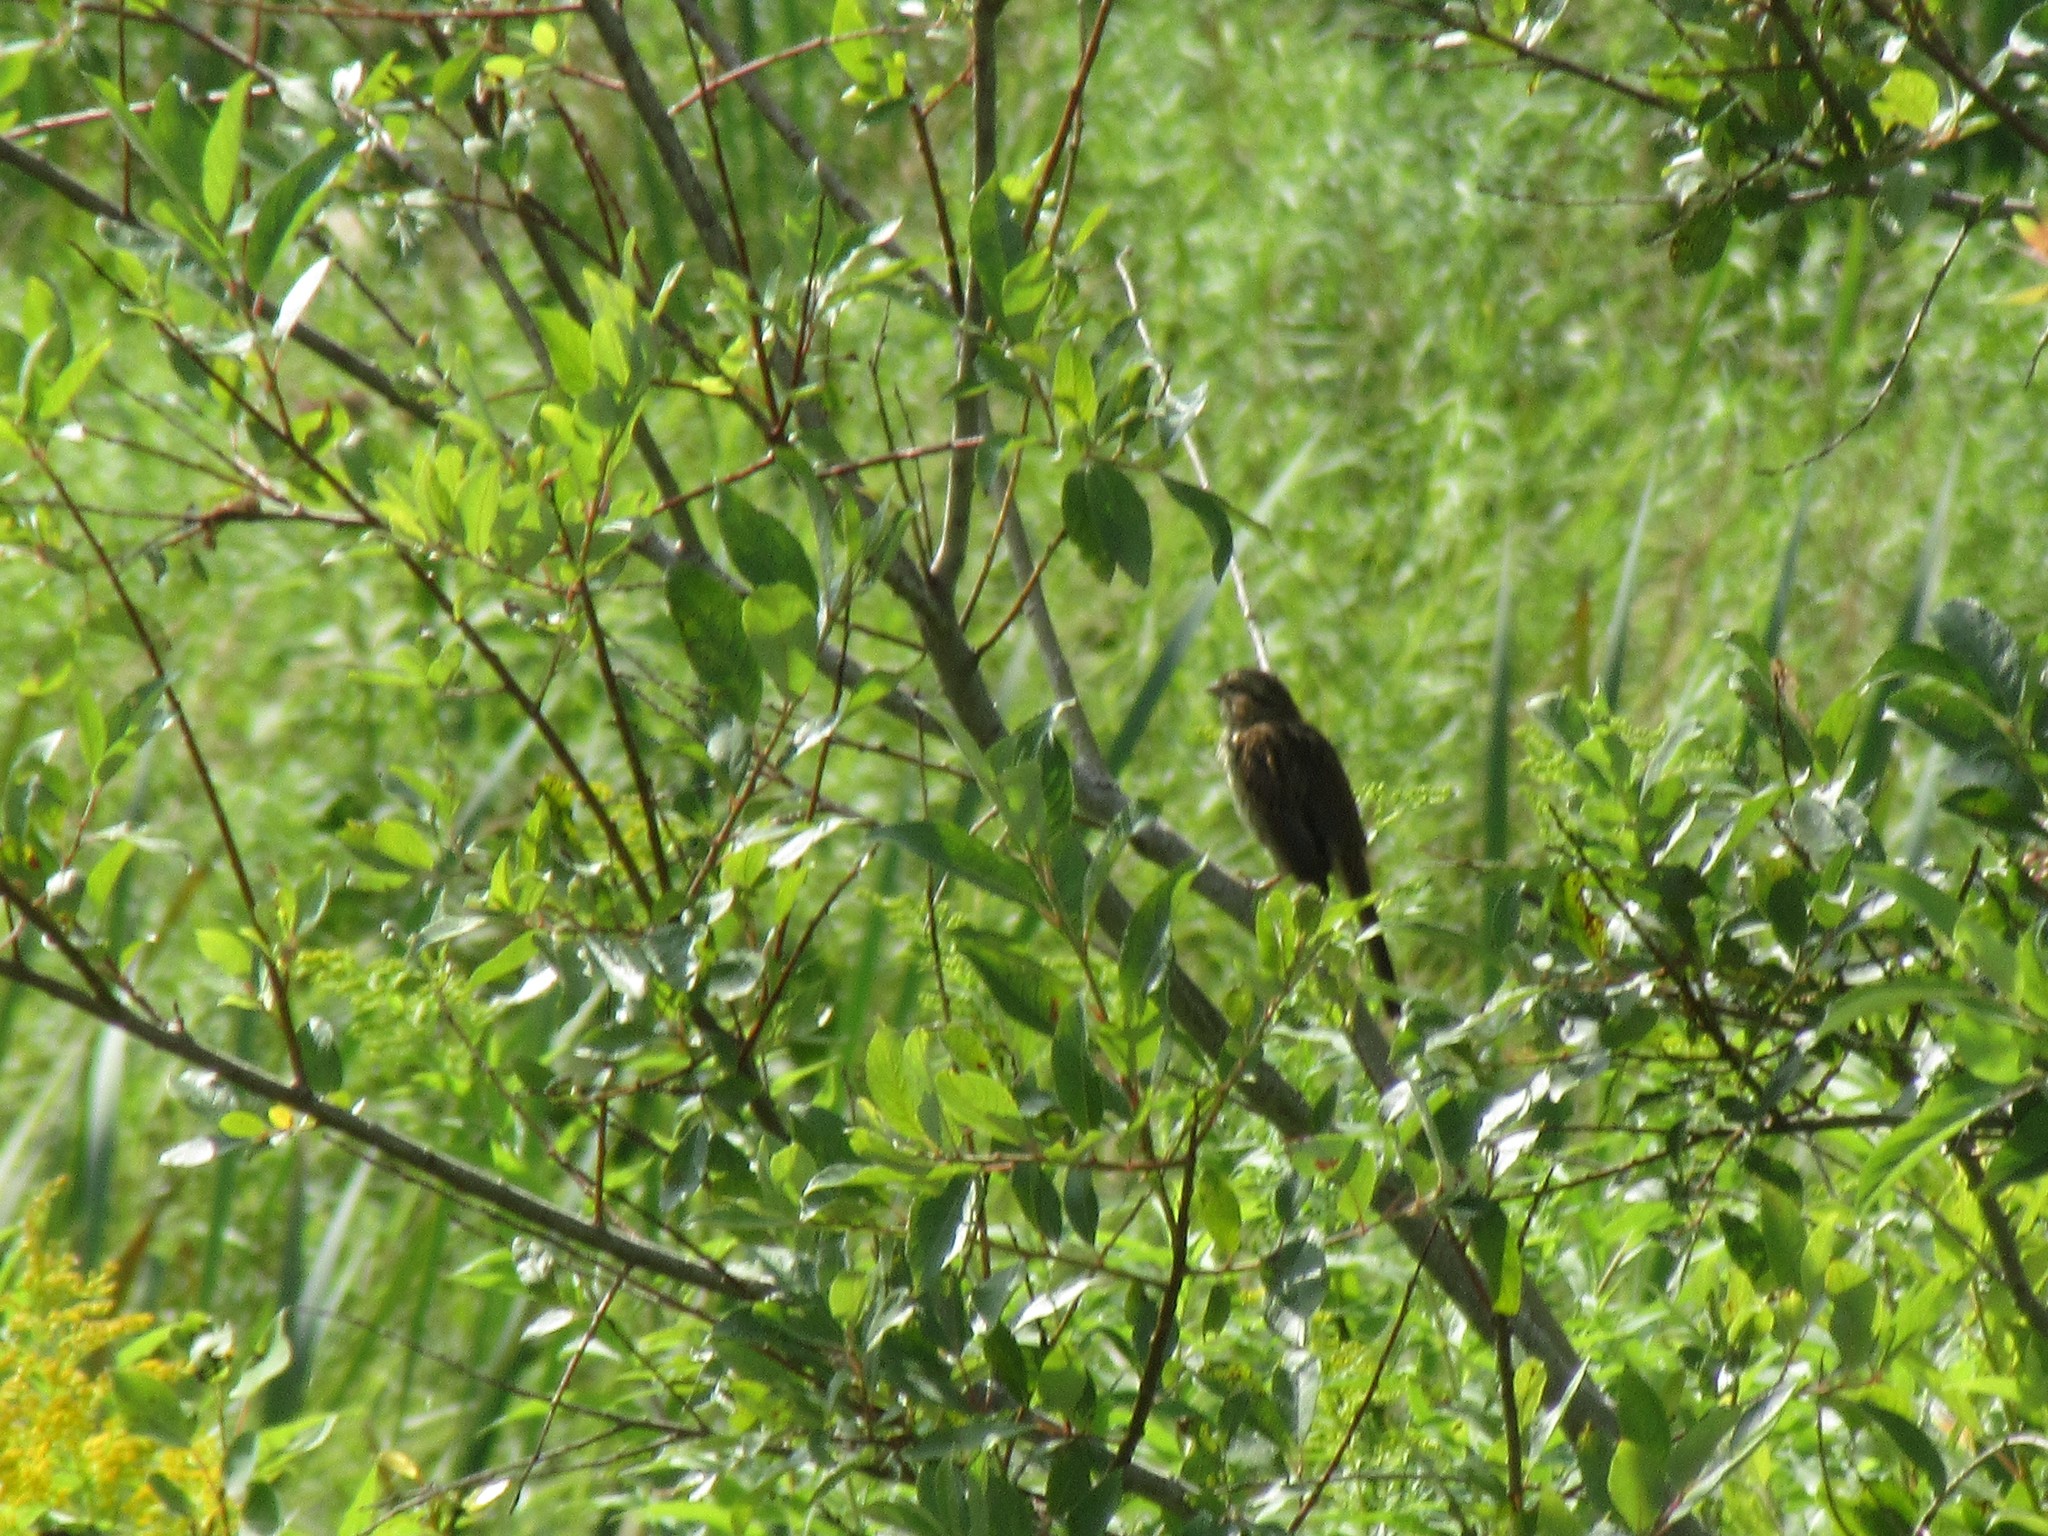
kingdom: Animalia
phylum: Chordata
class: Aves
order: Passeriformes
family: Passerellidae
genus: Melospiza
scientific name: Melospiza melodia
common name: Song sparrow
